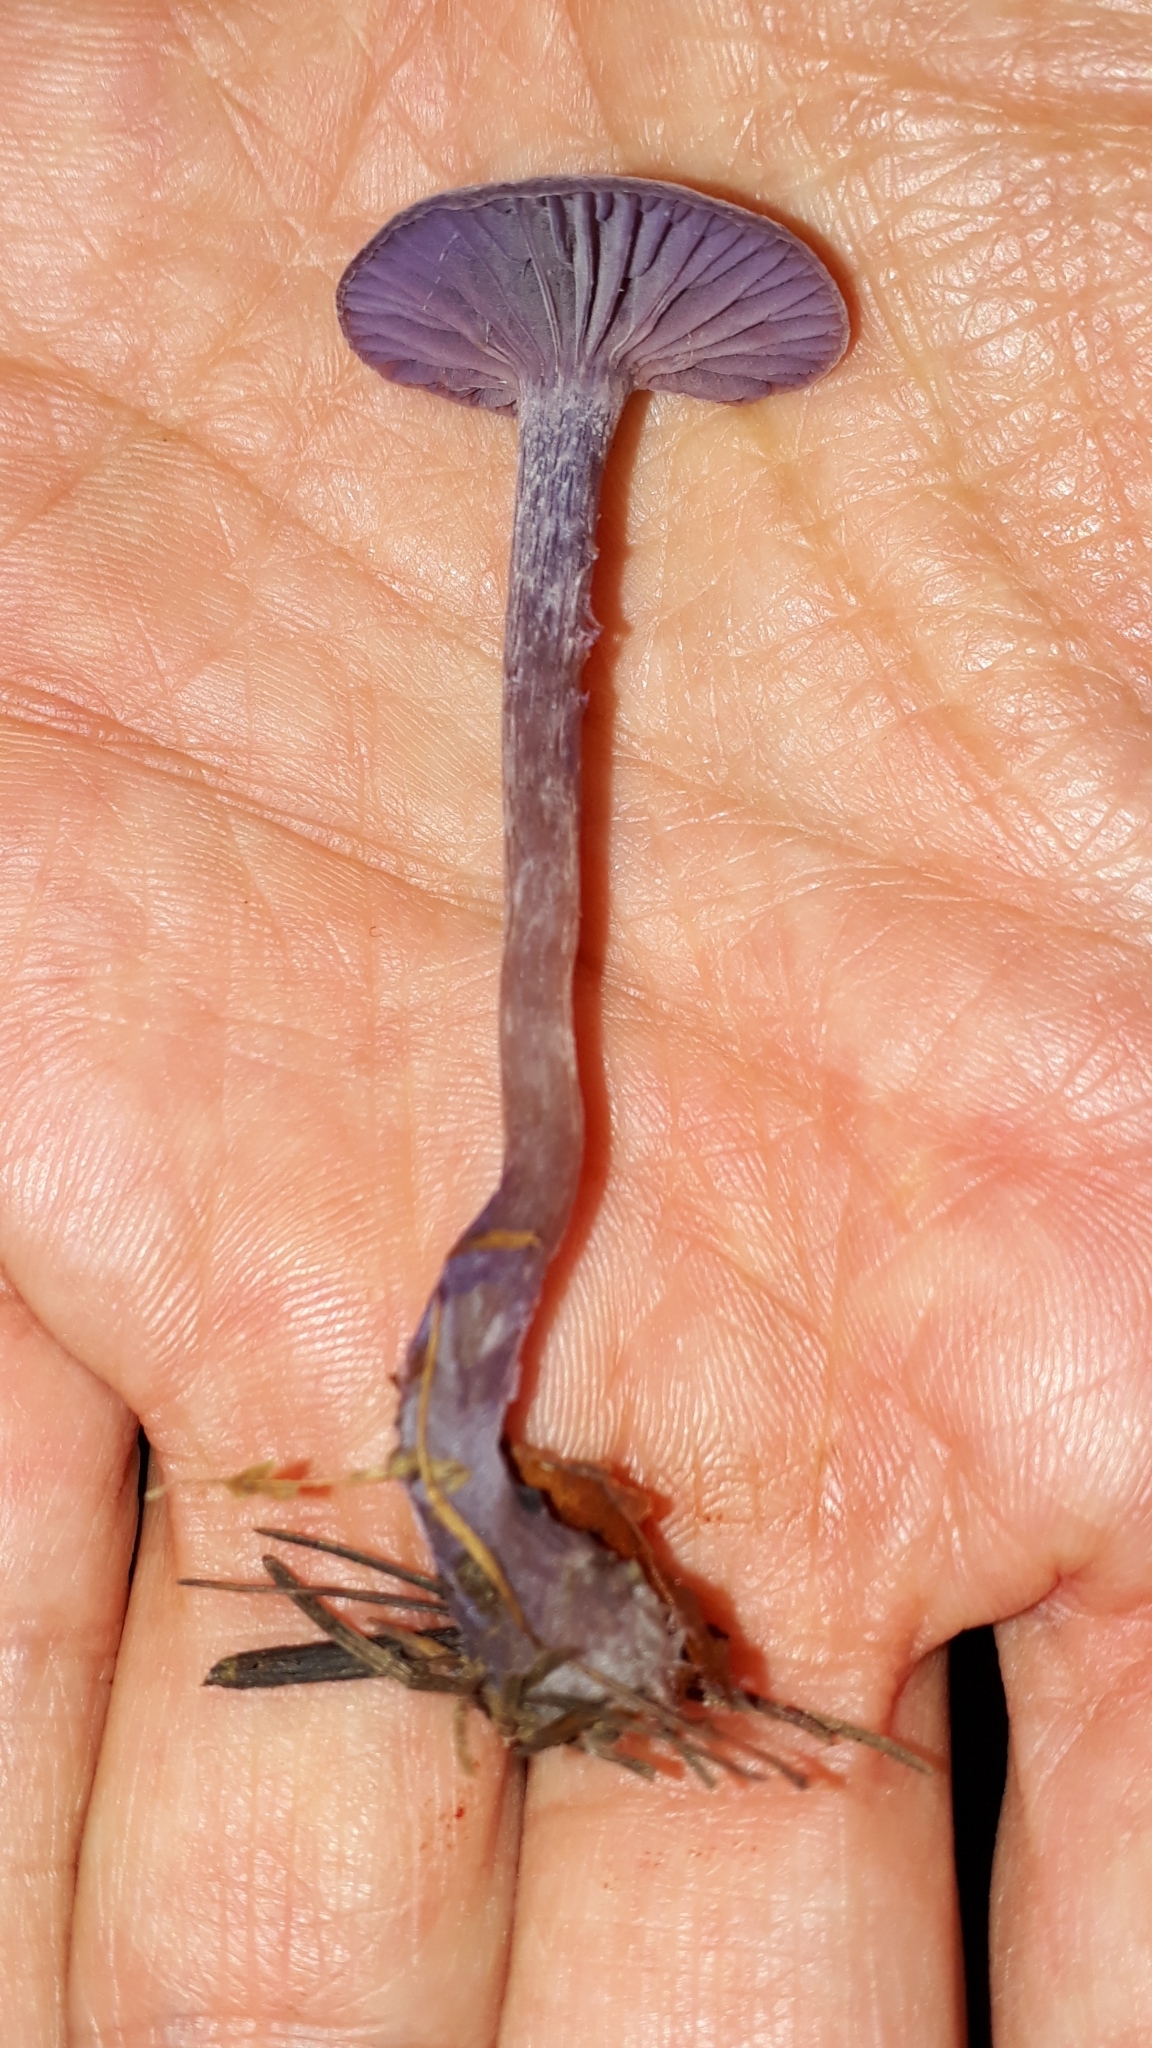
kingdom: Fungi
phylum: Basidiomycota
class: Agaricomycetes
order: Agaricales
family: Hydnangiaceae
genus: Laccaria
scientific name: Laccaria amethystina
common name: Amethyst deceiver
